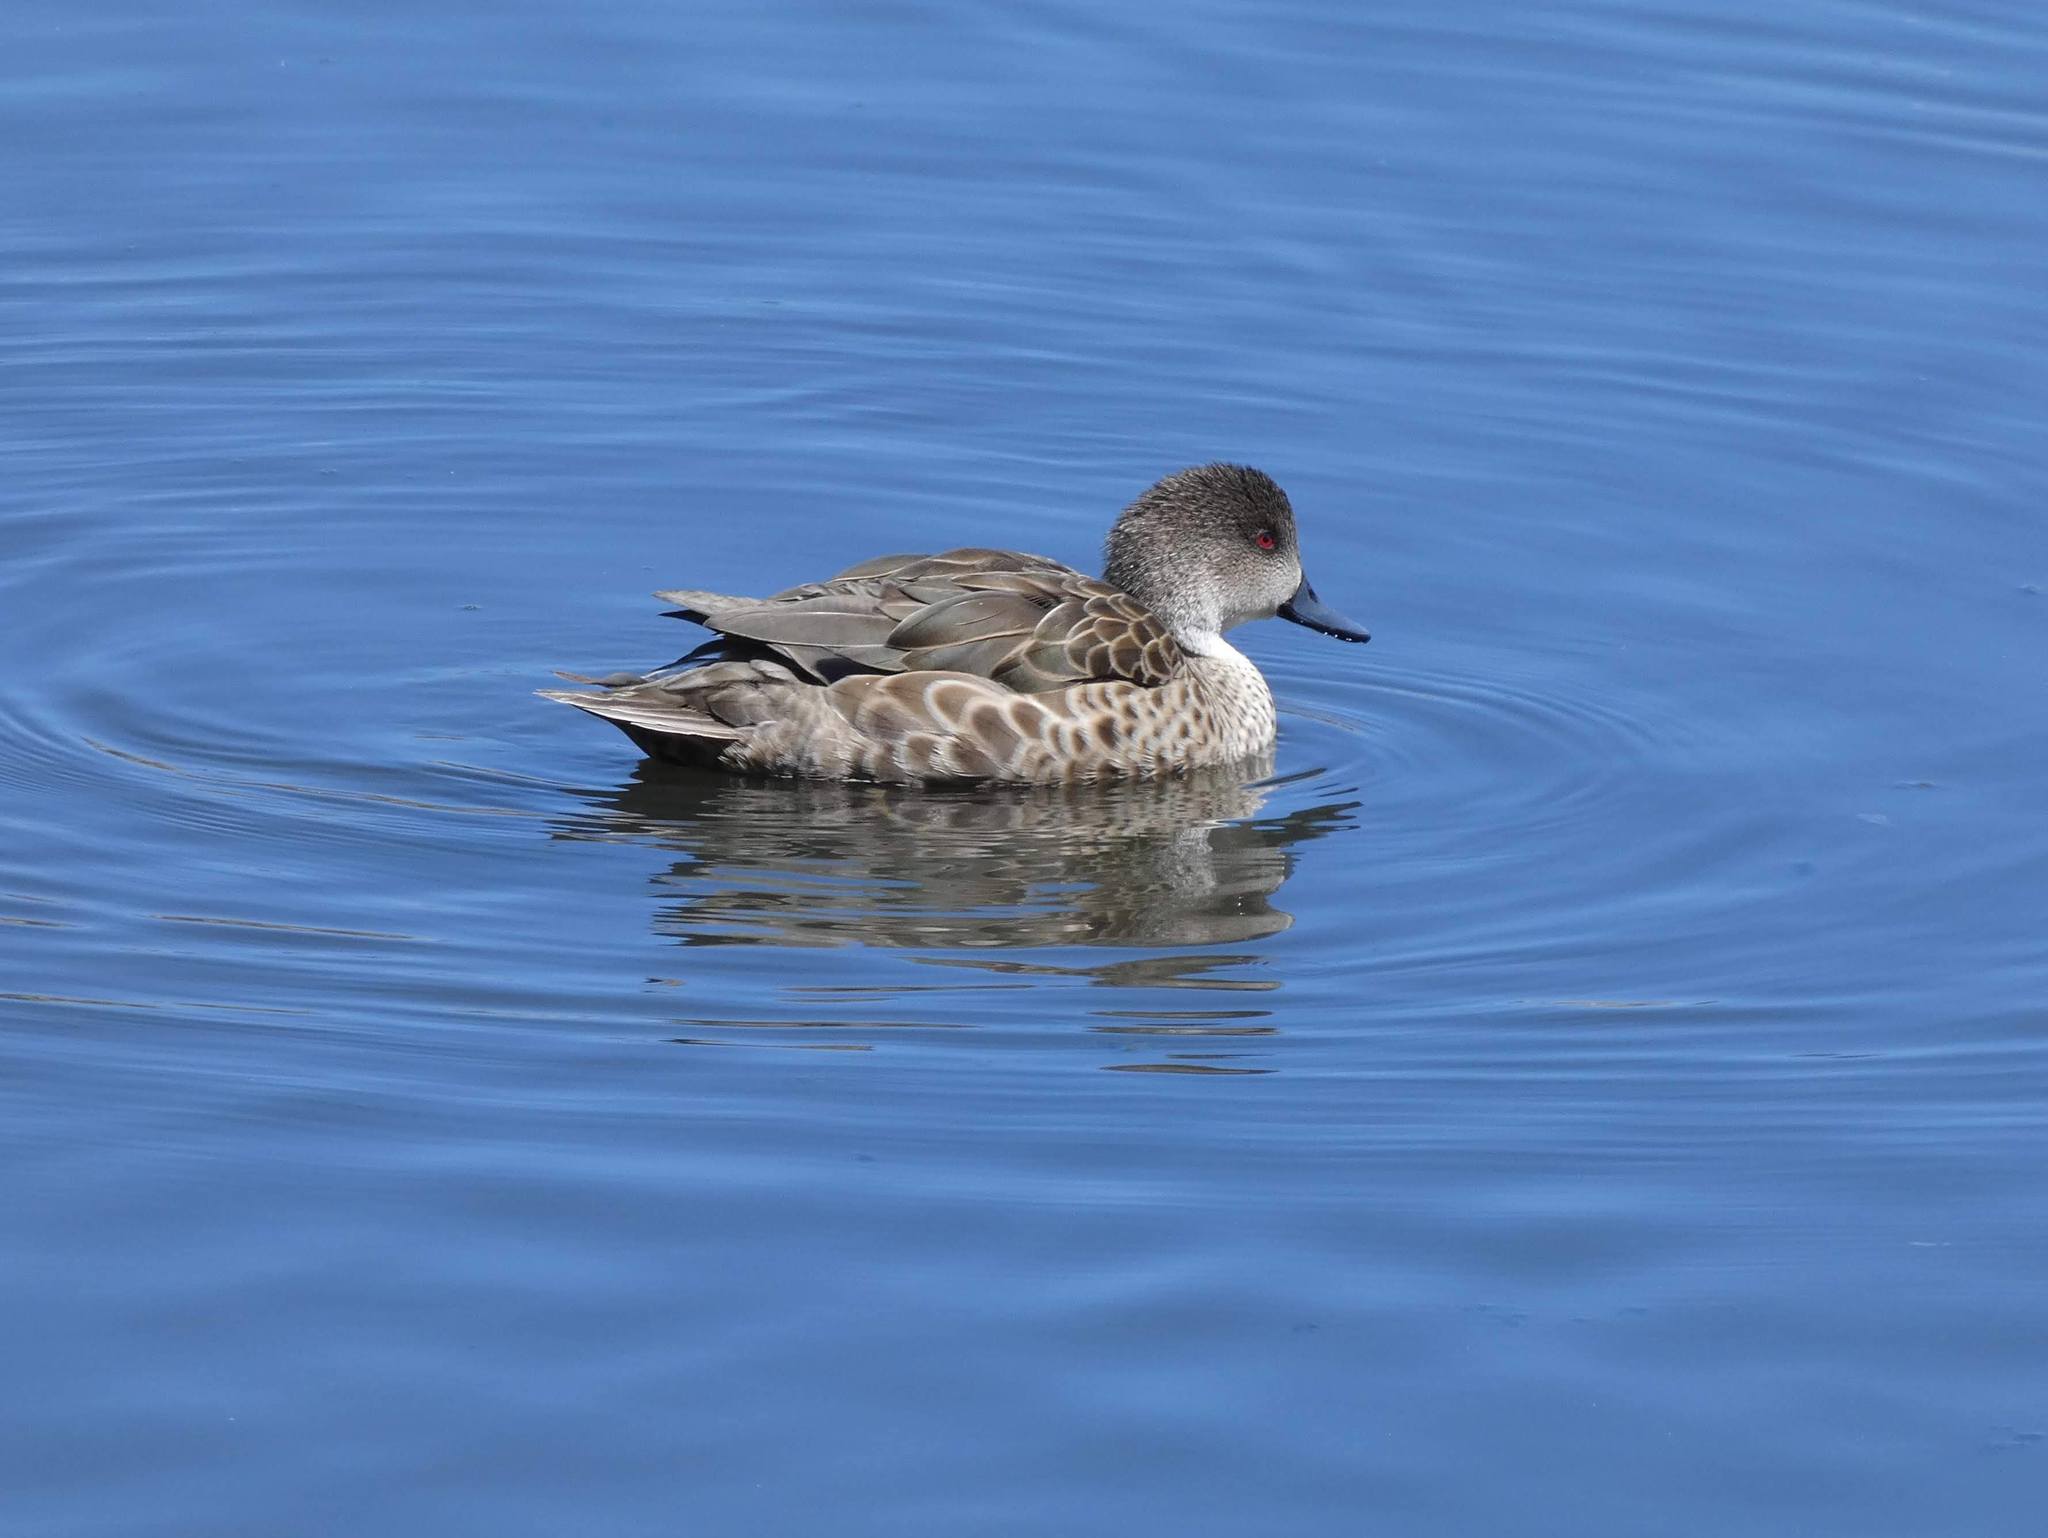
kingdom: Animalia
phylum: Chordata
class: Aves
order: Anseriformes
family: Anatidae
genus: Anas
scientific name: Anas gracilis
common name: Grey teal
